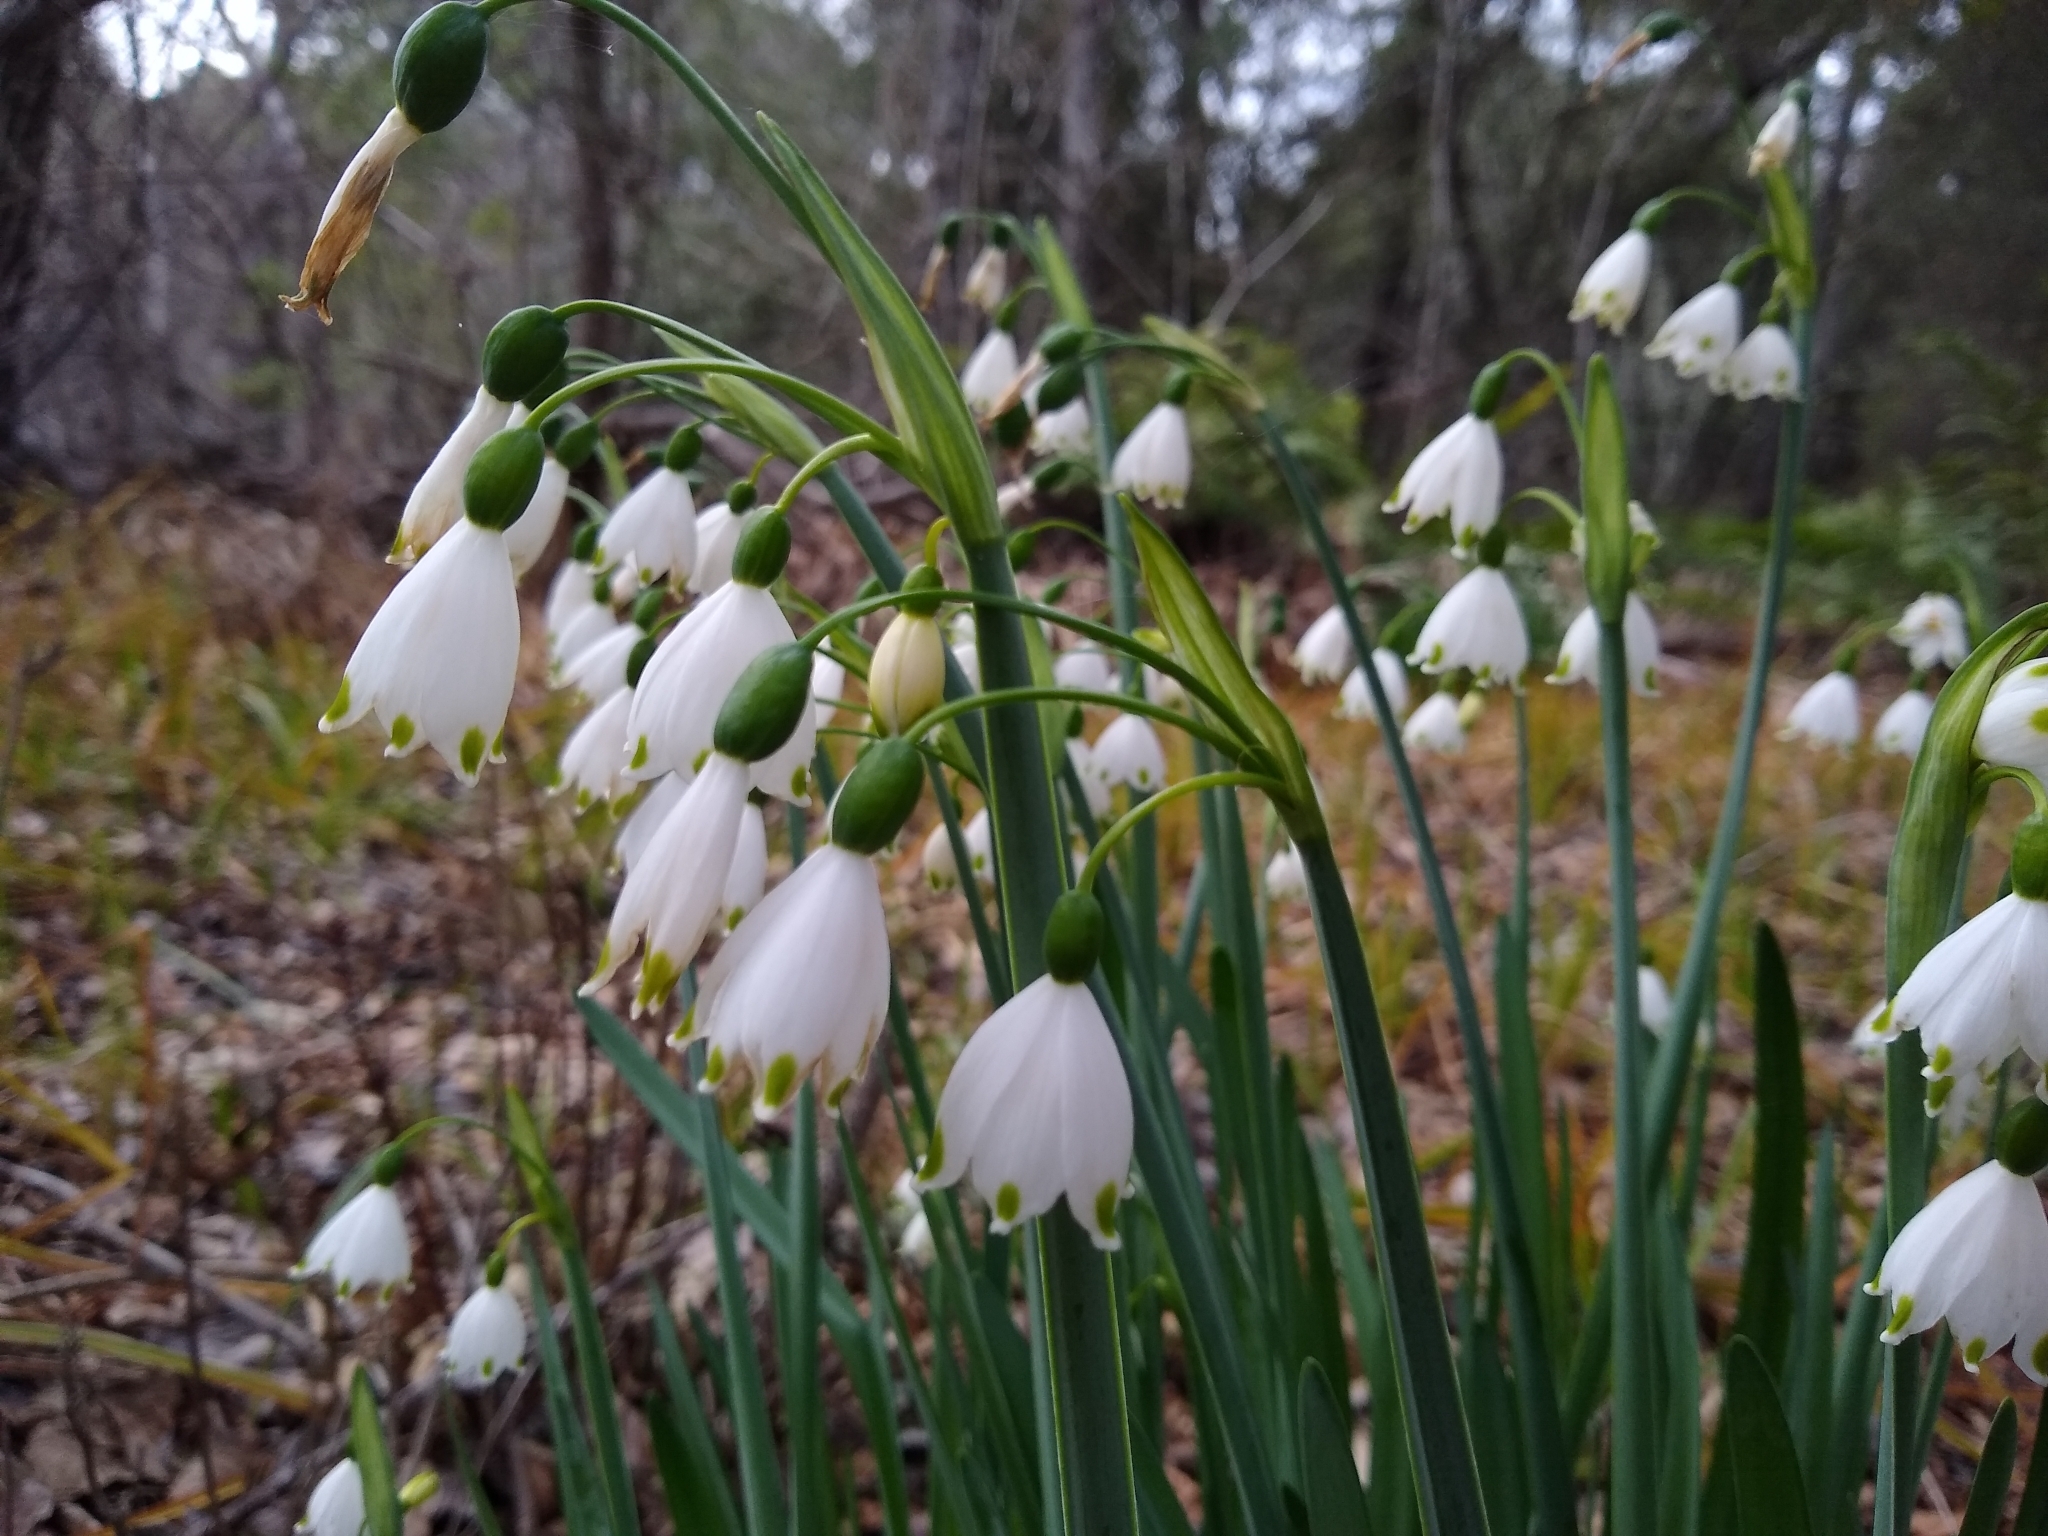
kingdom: Plantae
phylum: Tracheophyta
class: Liliopsida
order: Asparagales
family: Amaryllidaceae
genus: Leucojum
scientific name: Leucojum aestivum
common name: Summer snowflake
